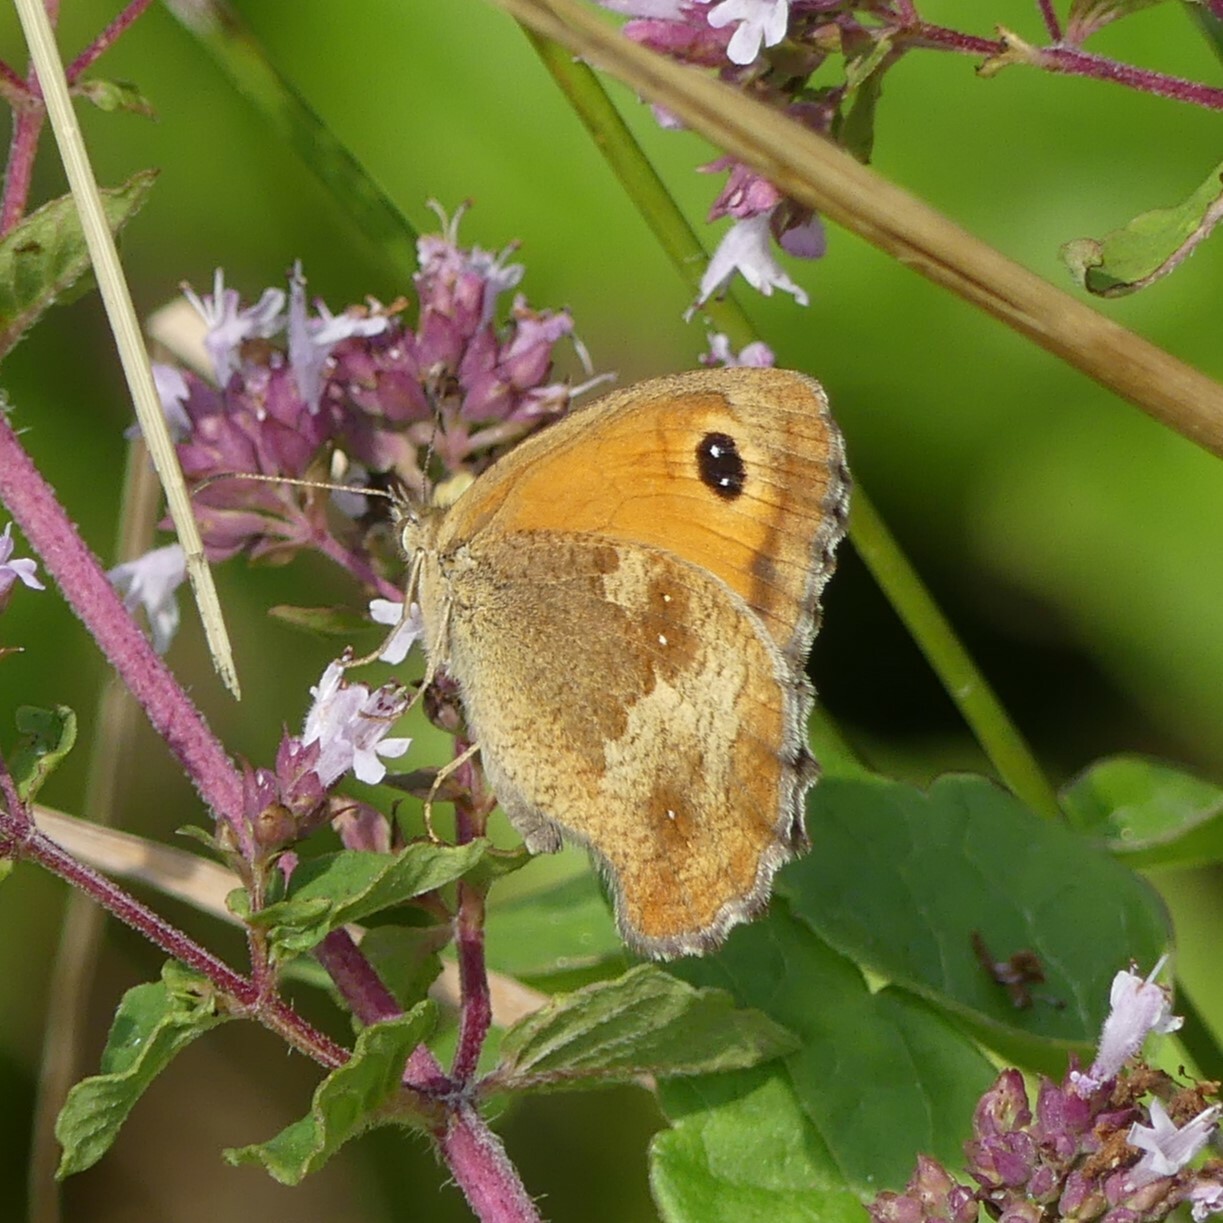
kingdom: Animalia
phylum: Arthropoda
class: Insecta
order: Lepidoptera
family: Nymphalidae
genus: Pyronia
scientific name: Pyronia tithonus
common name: Gatekeeper
